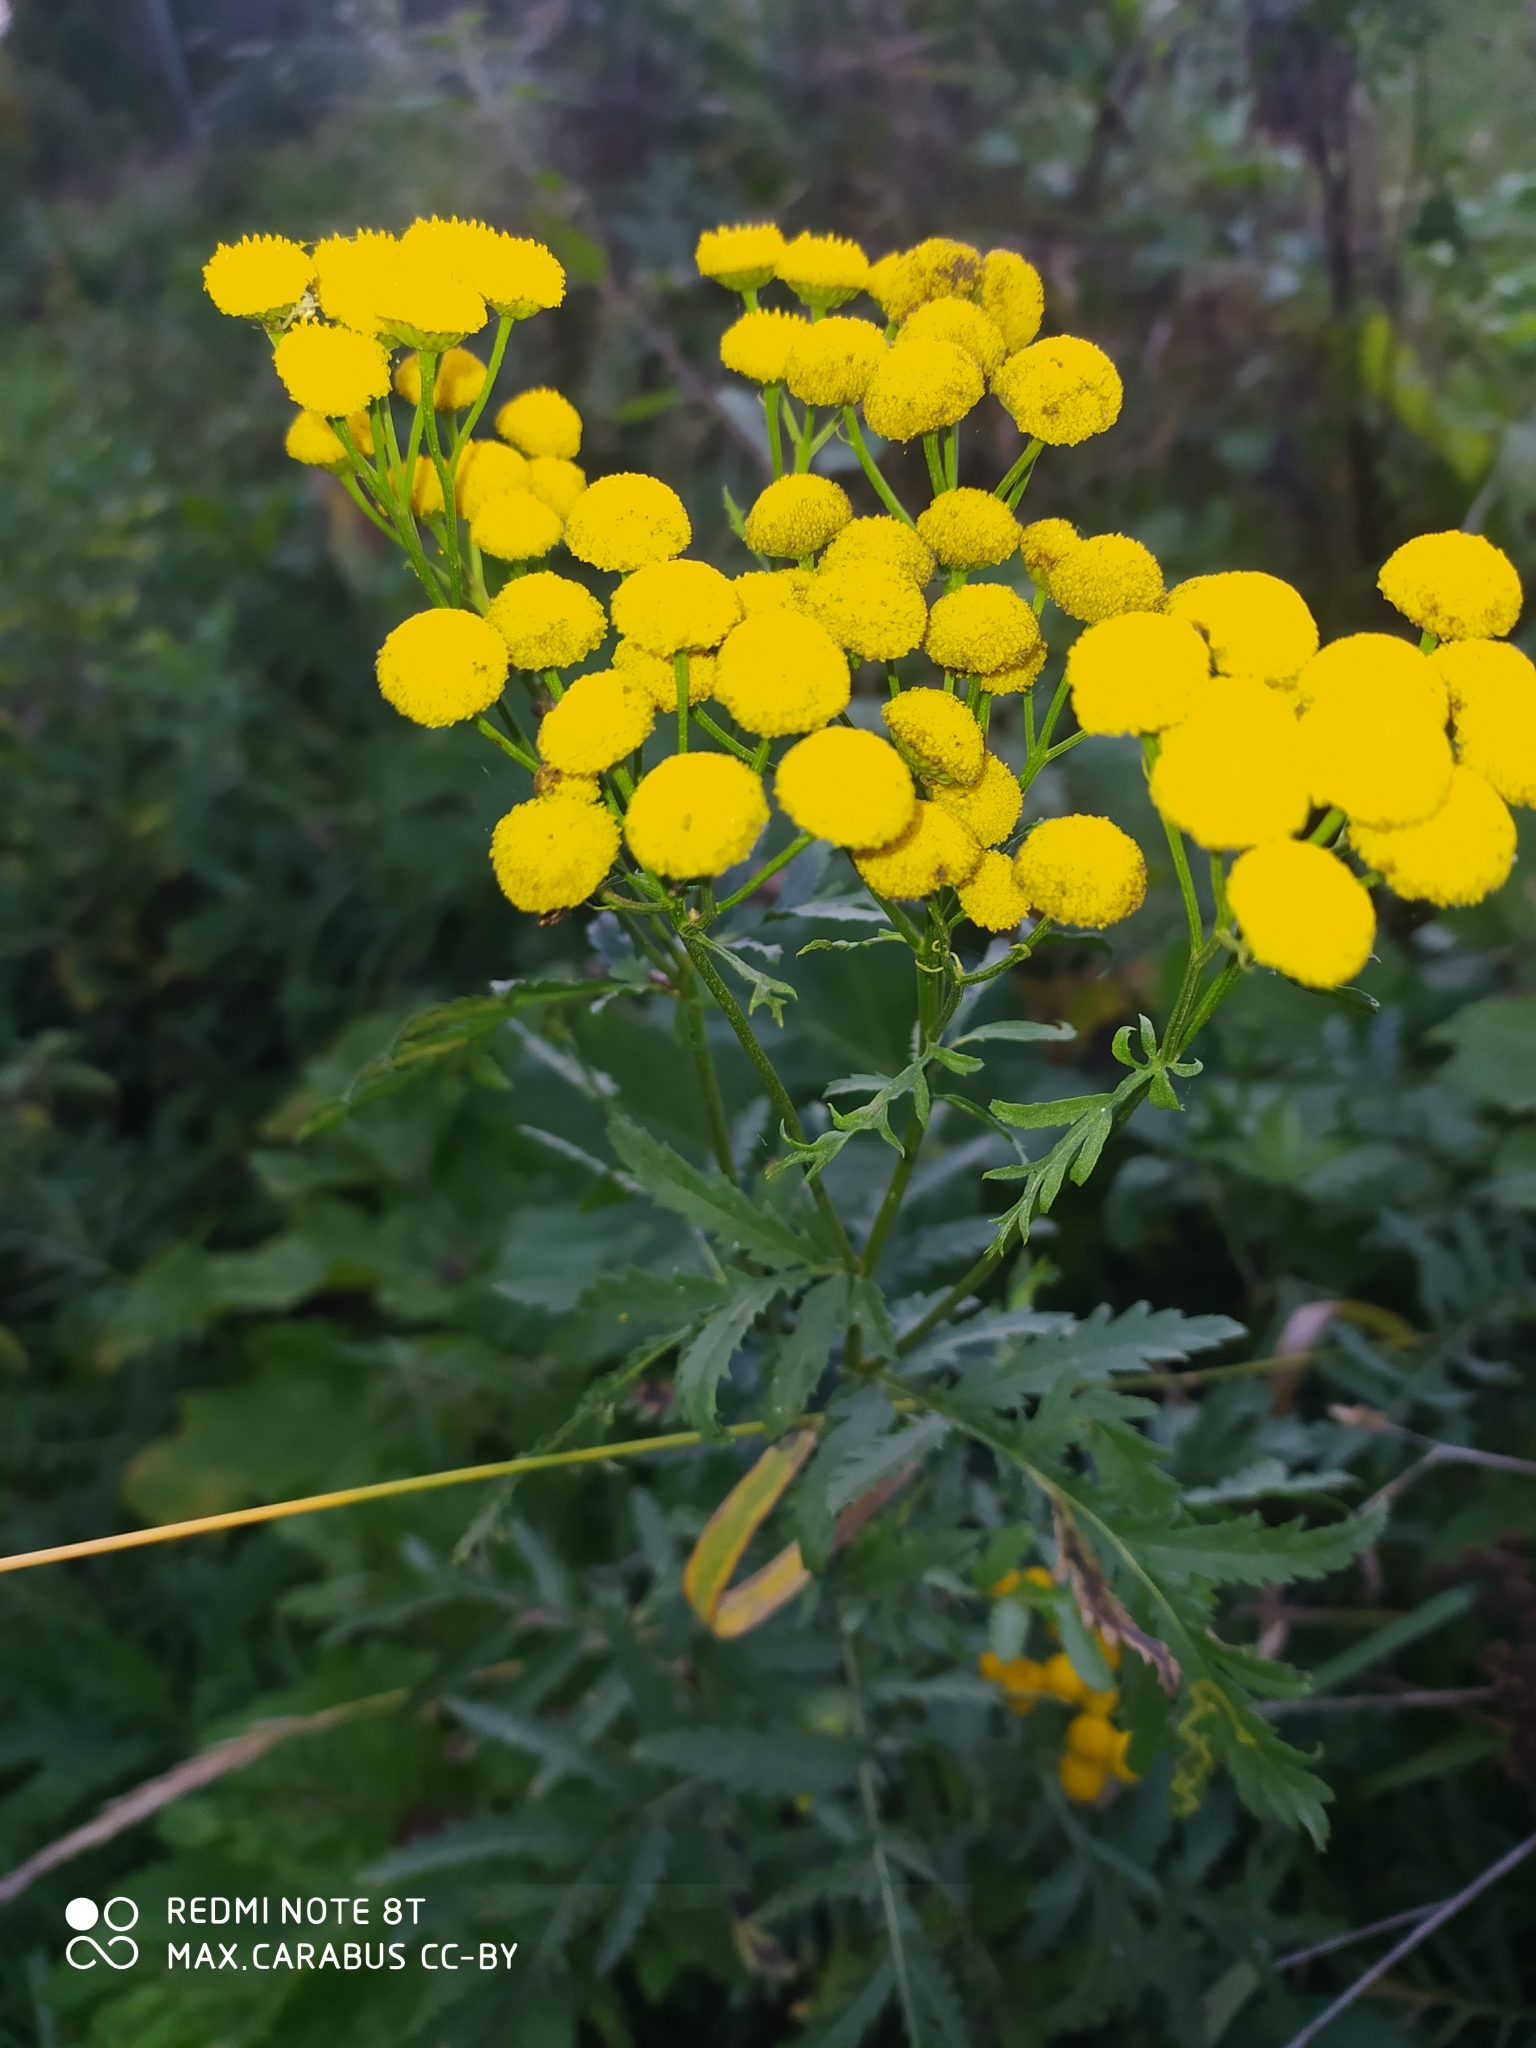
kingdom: Plantae
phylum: Tracheophyta
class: Magnoliopsida
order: Asterales
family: Asteraceae
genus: Tanacetum
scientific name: Tanacetum vulgare
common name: Common tansy
